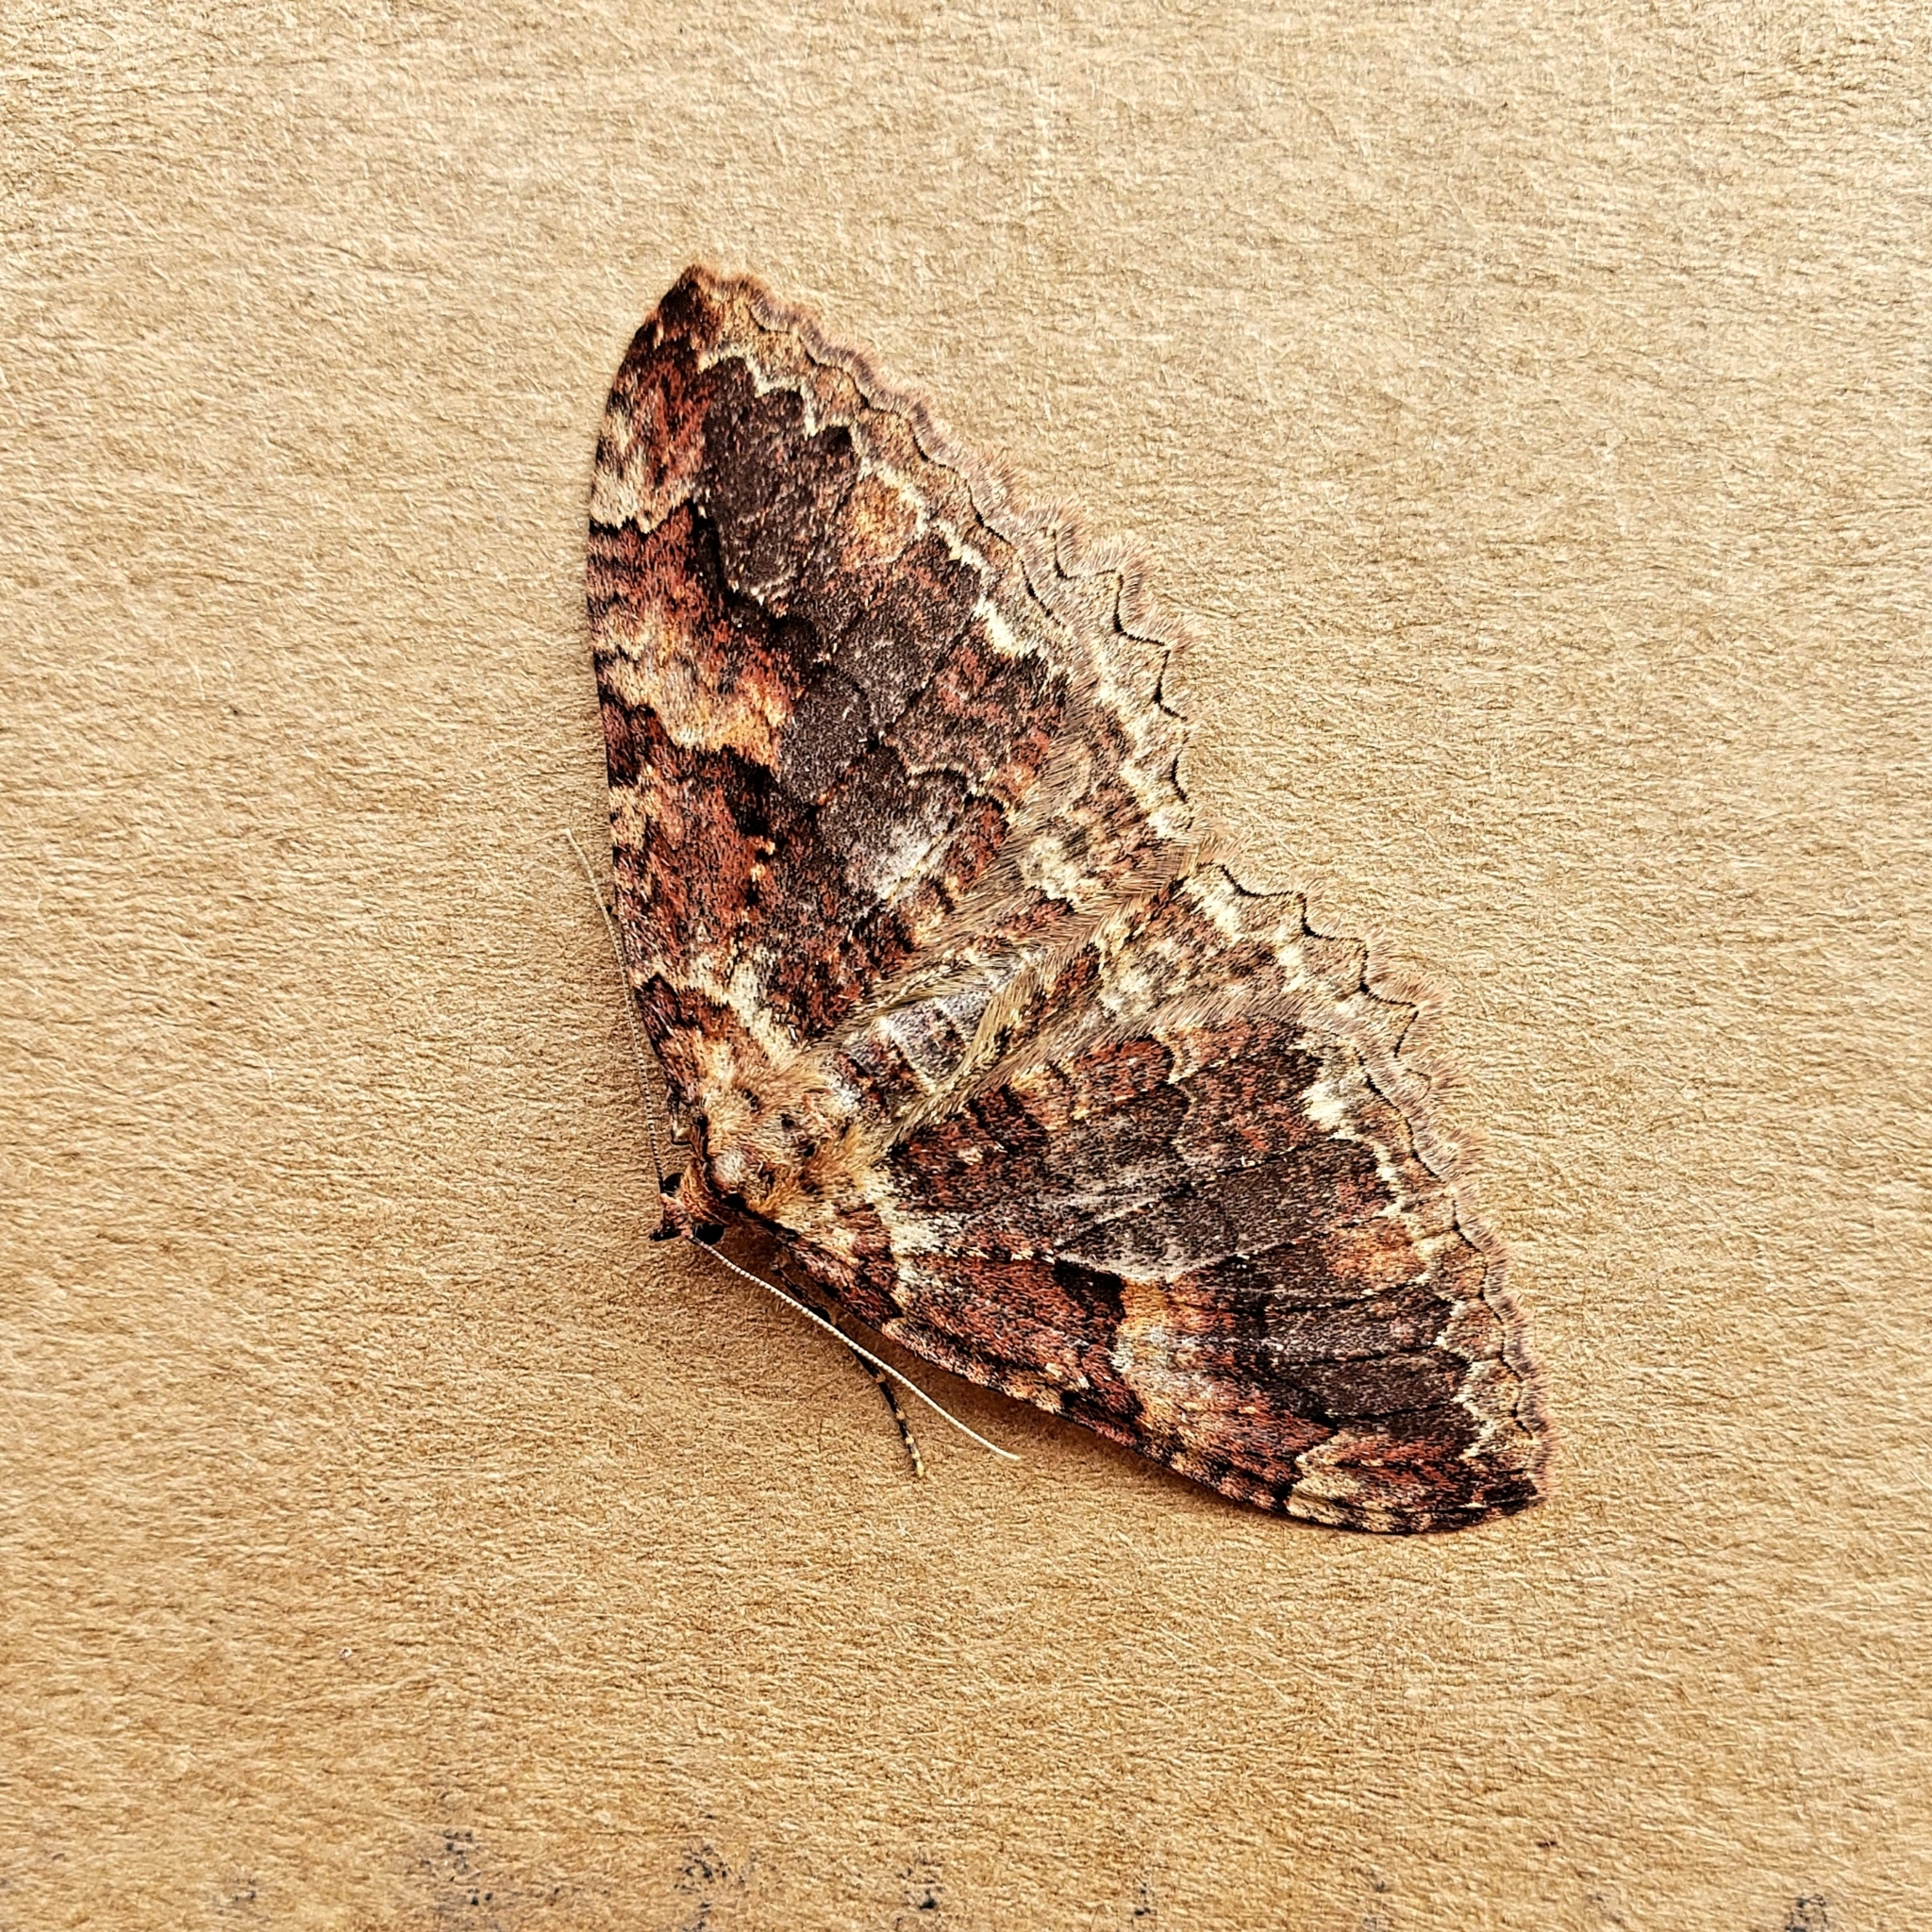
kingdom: Animalia
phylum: Arthropoda
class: Insecta
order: Lepidoptera
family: Geometridae
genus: Triphosa
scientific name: Triphosa haesitata
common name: Tissue moth
